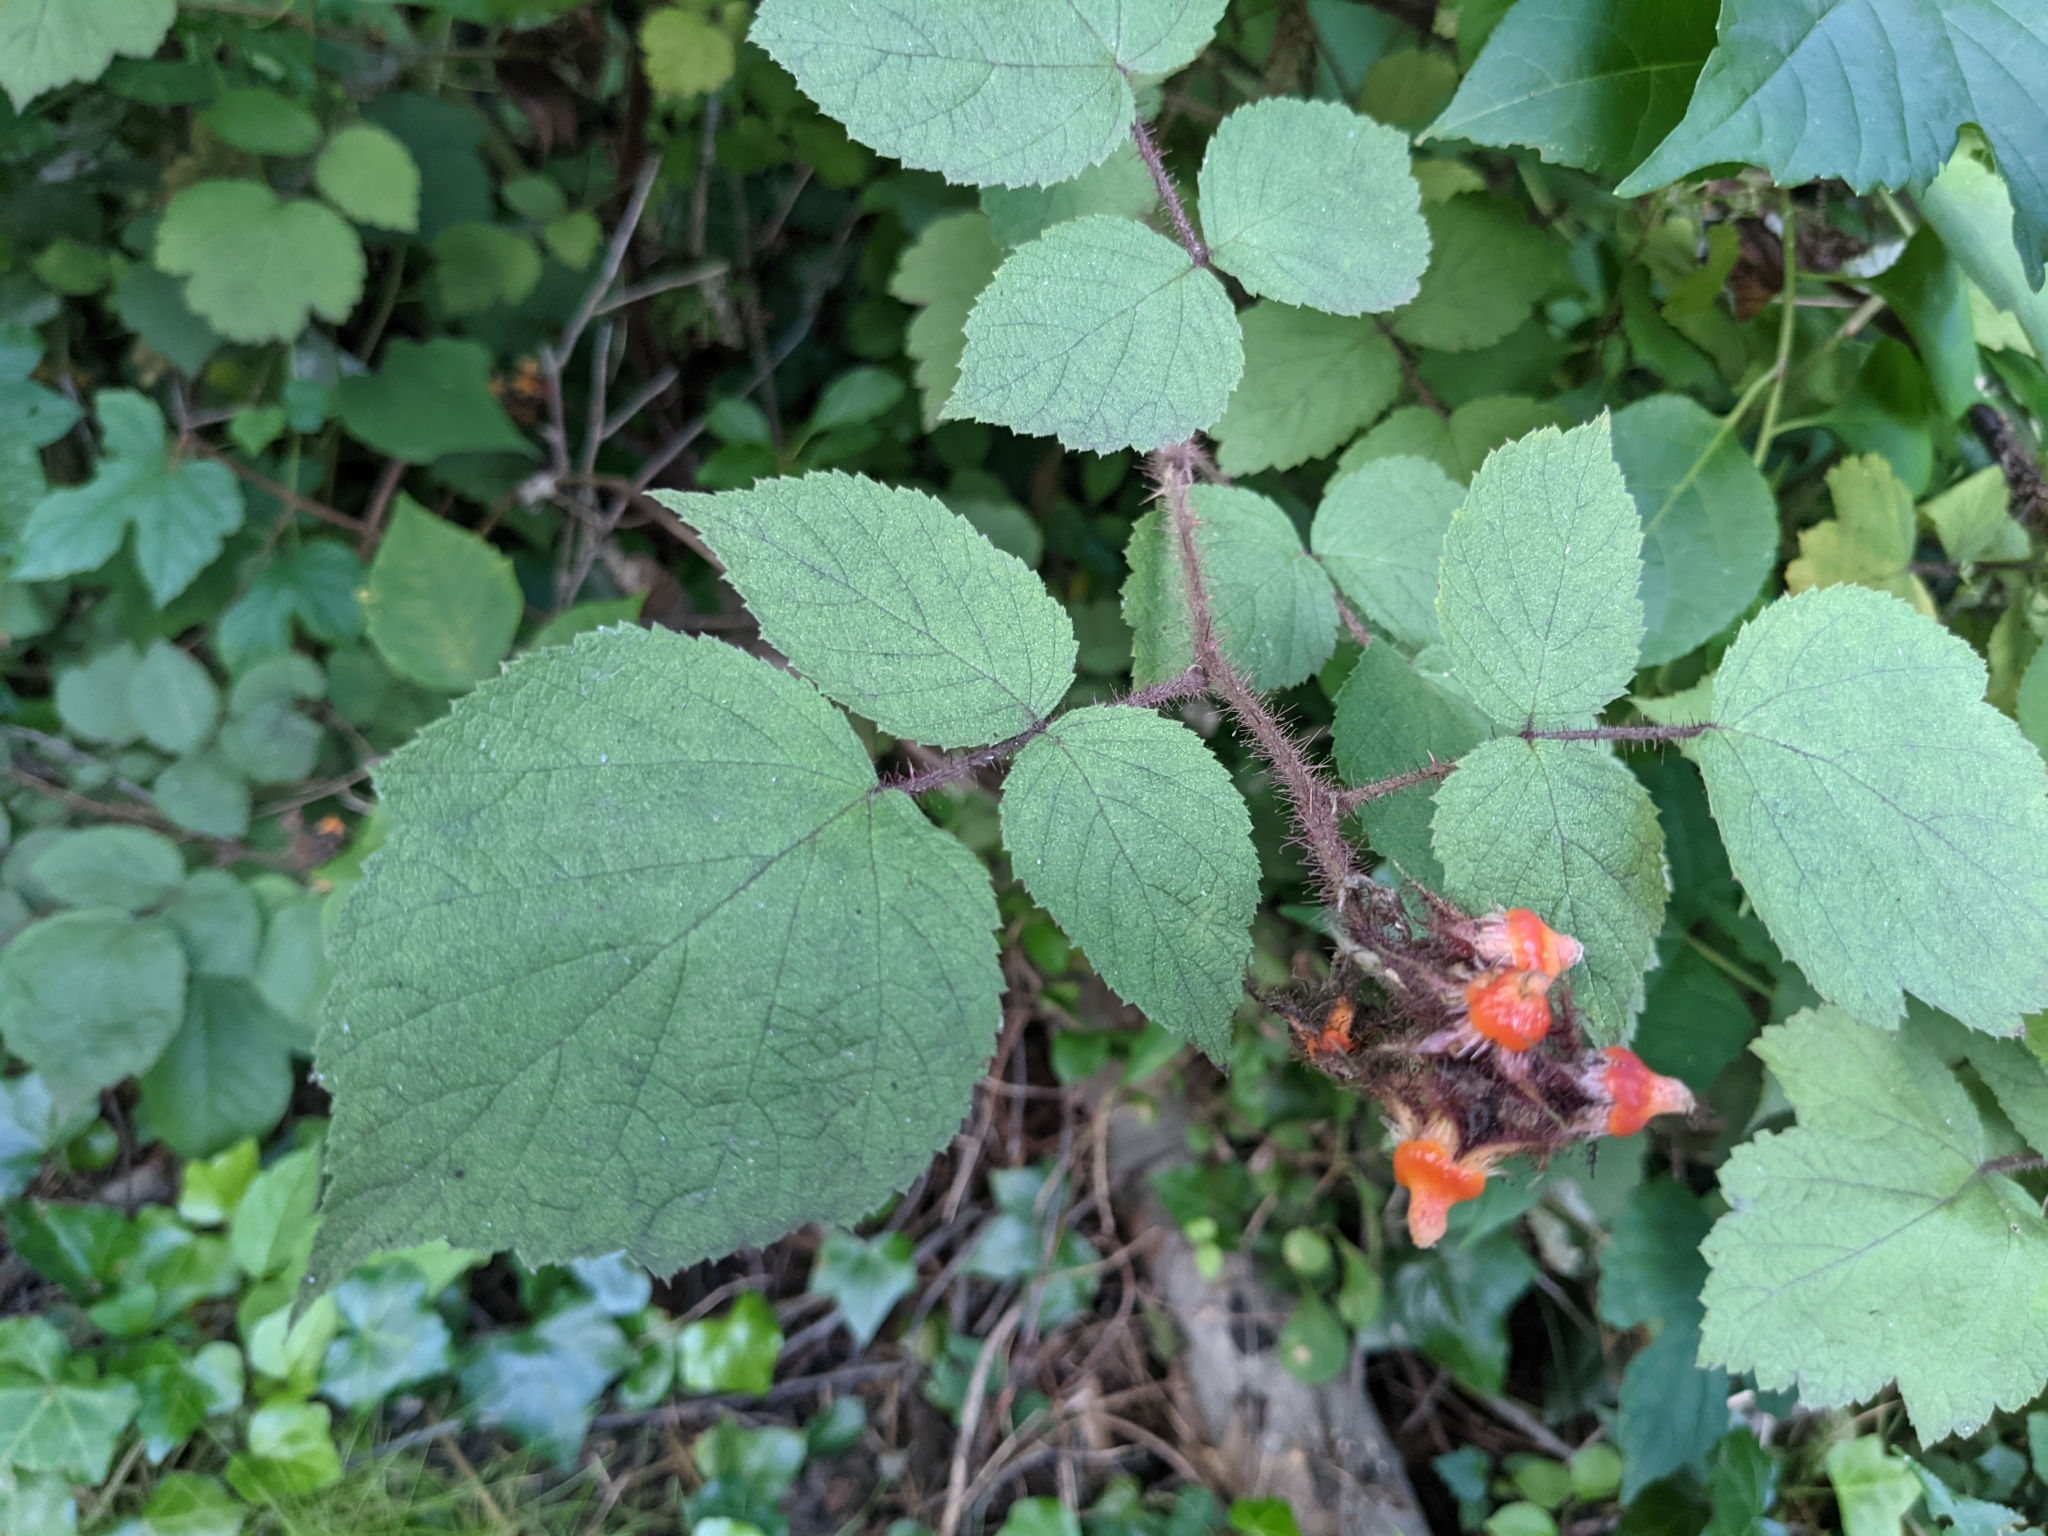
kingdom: Plantae
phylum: Tracheophyta
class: Magnoliopsida
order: Rosales
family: Rosaceae
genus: Rubus
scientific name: Rubus phoenicolasius
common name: Japanese wineberry
